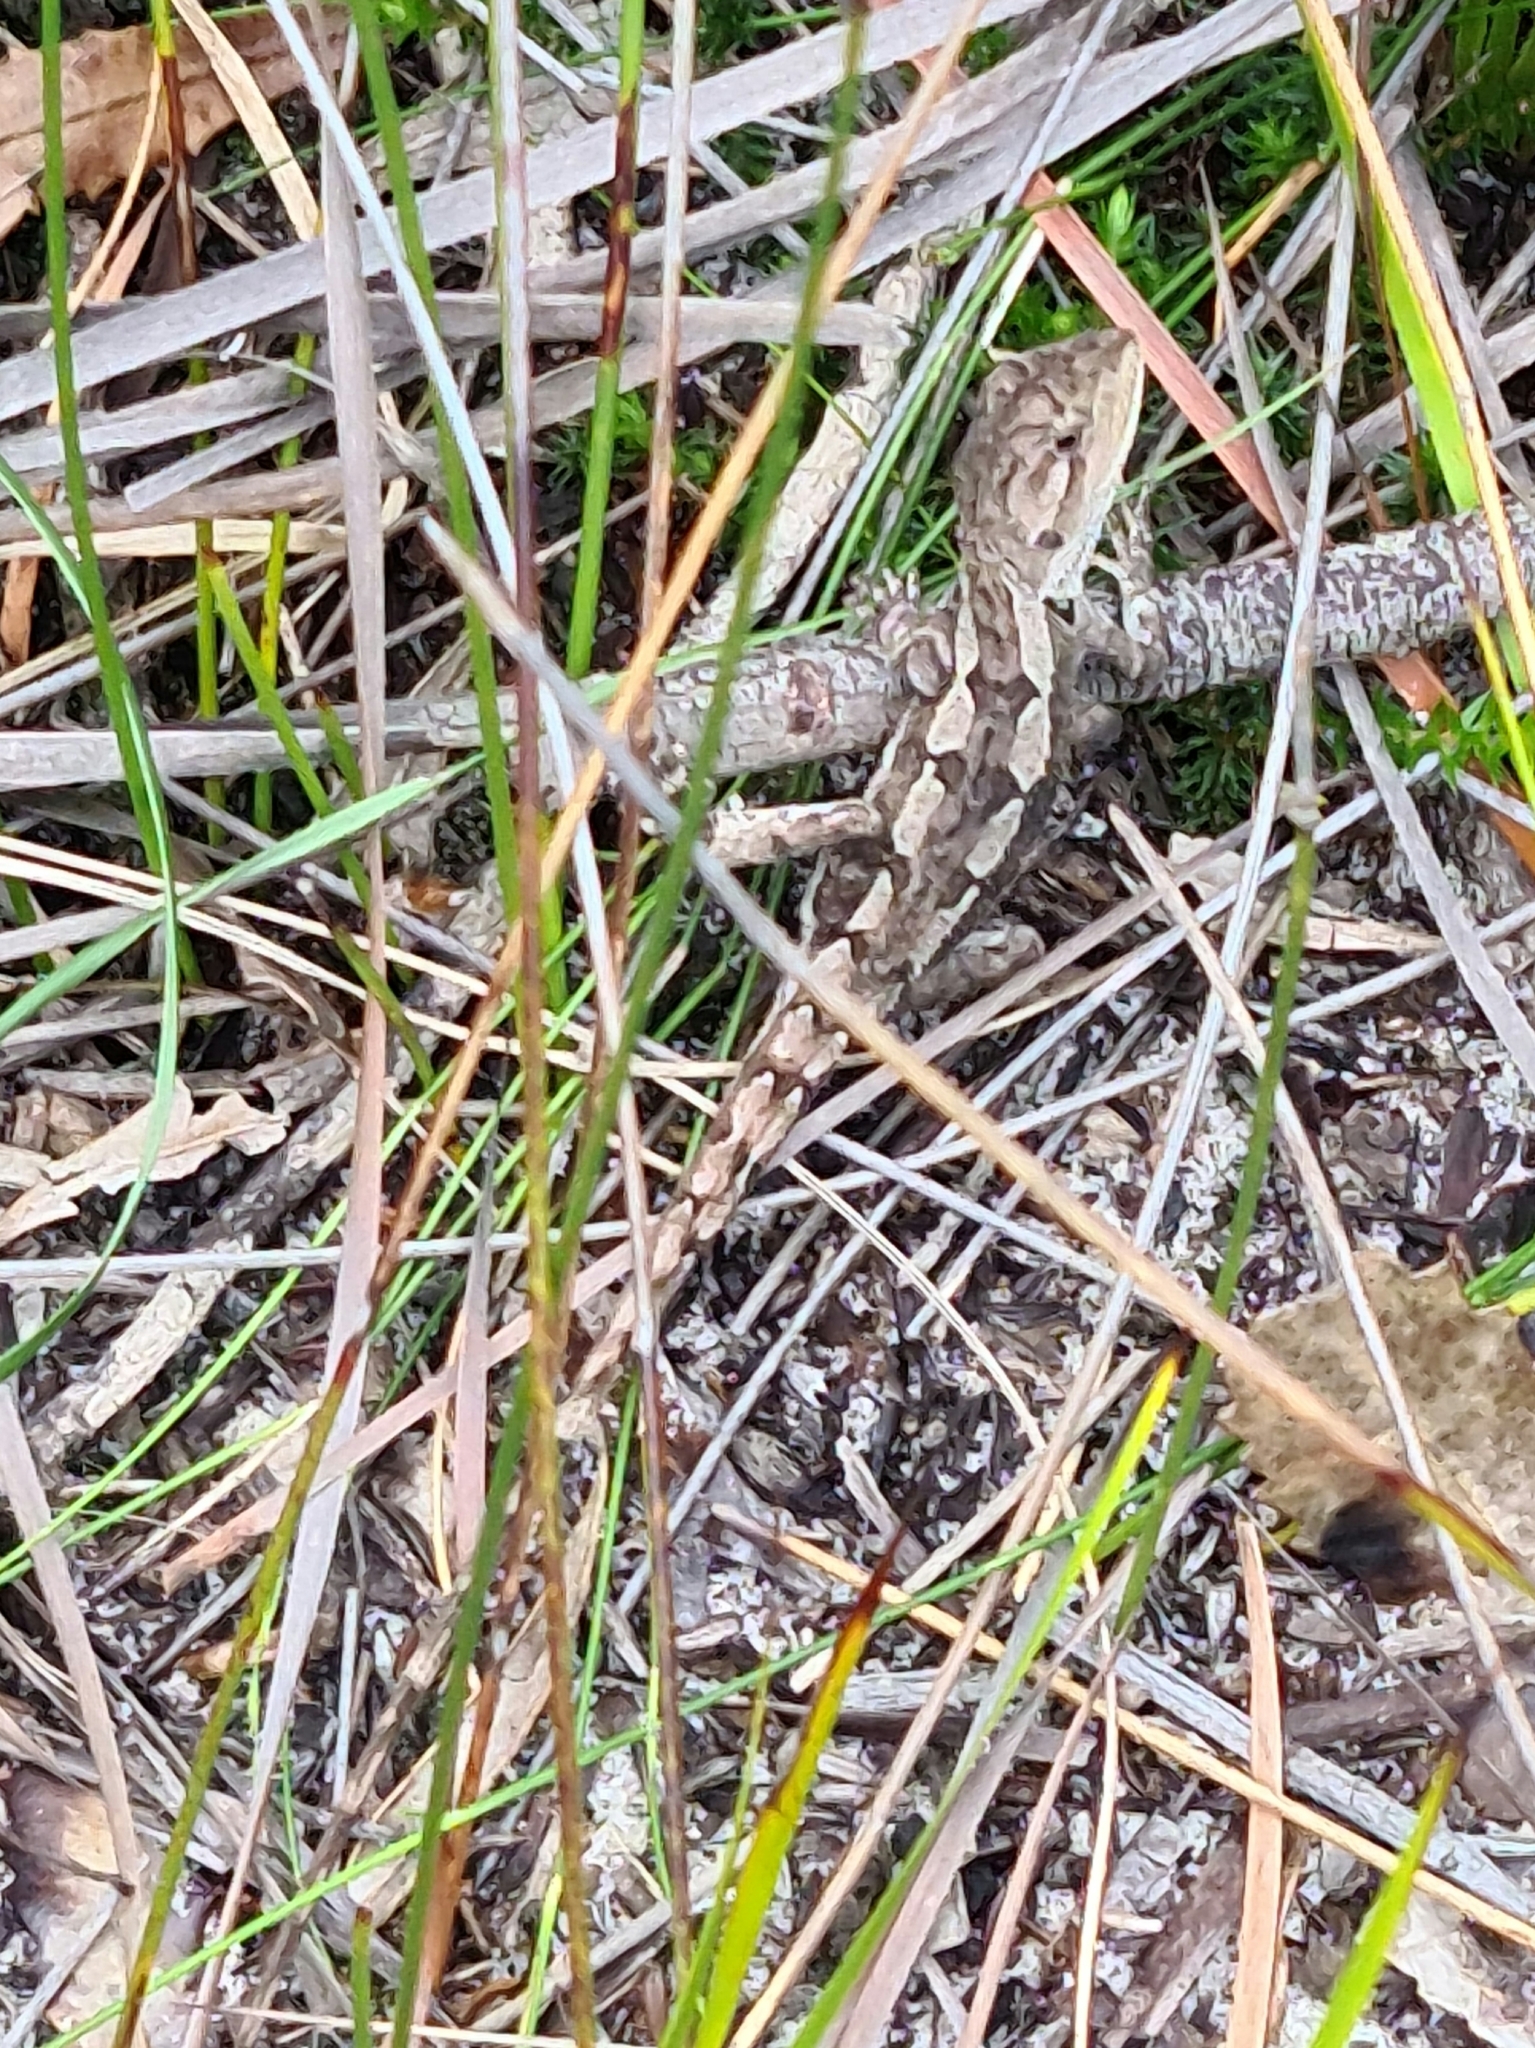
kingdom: Animalia
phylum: Chordata
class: Squamata
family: Agamidae
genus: Amphibolurus
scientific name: Amphibolurus muricatus
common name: Jacky lizard
